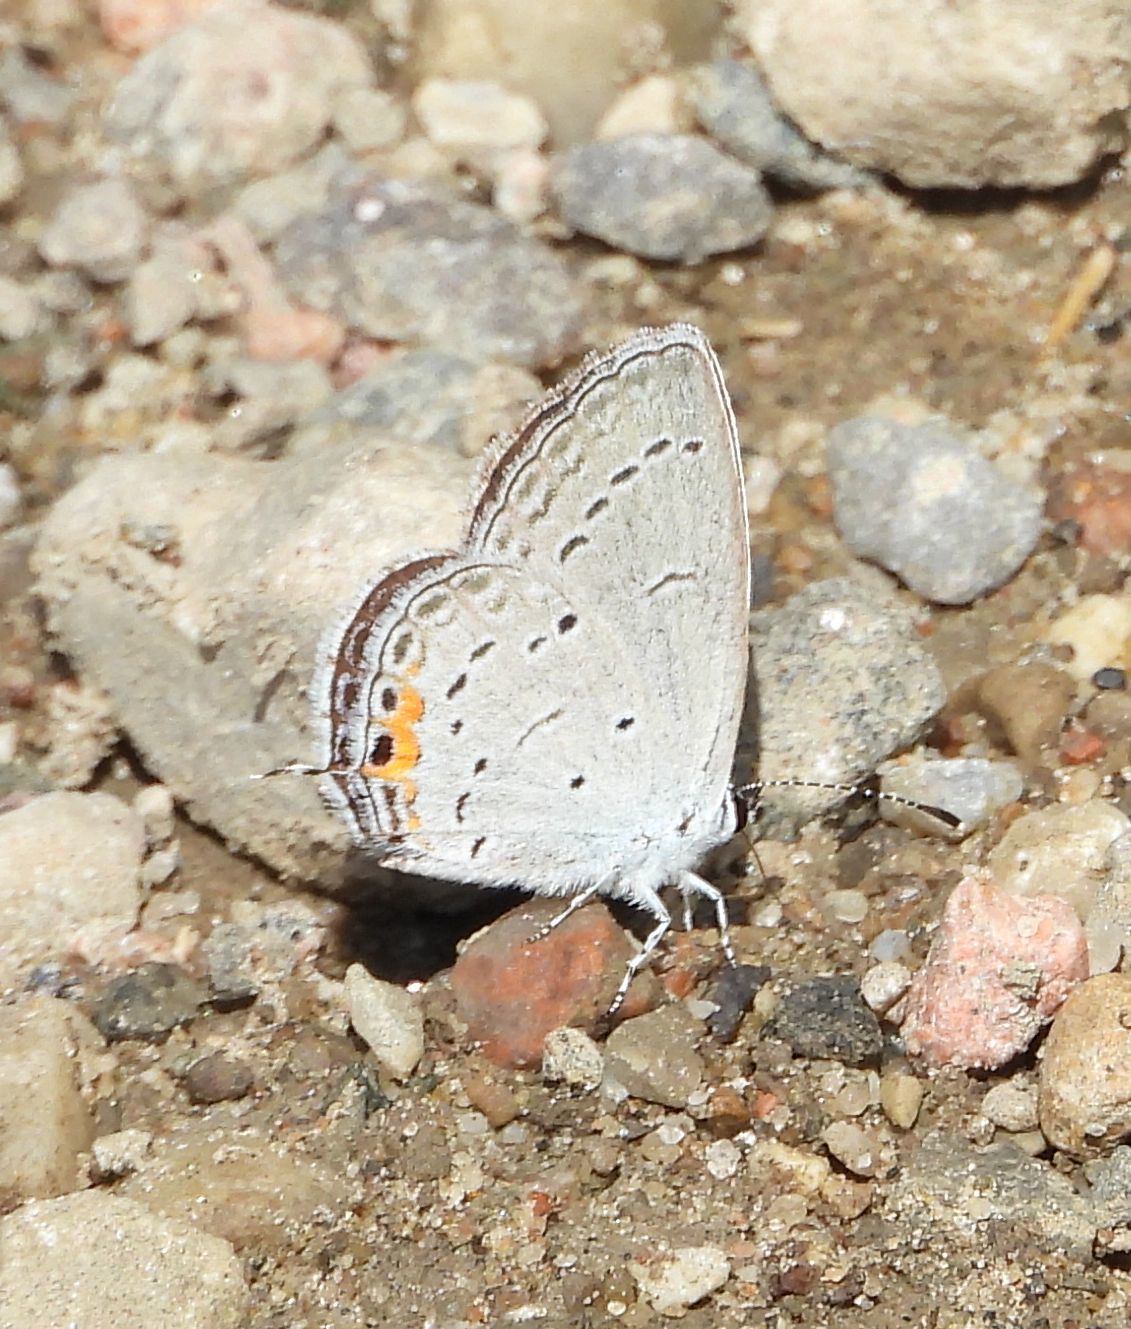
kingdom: Animalia
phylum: Arthropoda
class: Insecta
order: Lepidoptera
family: Lycaenidae
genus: Elkalyce
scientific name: Elkalyce comyntas
